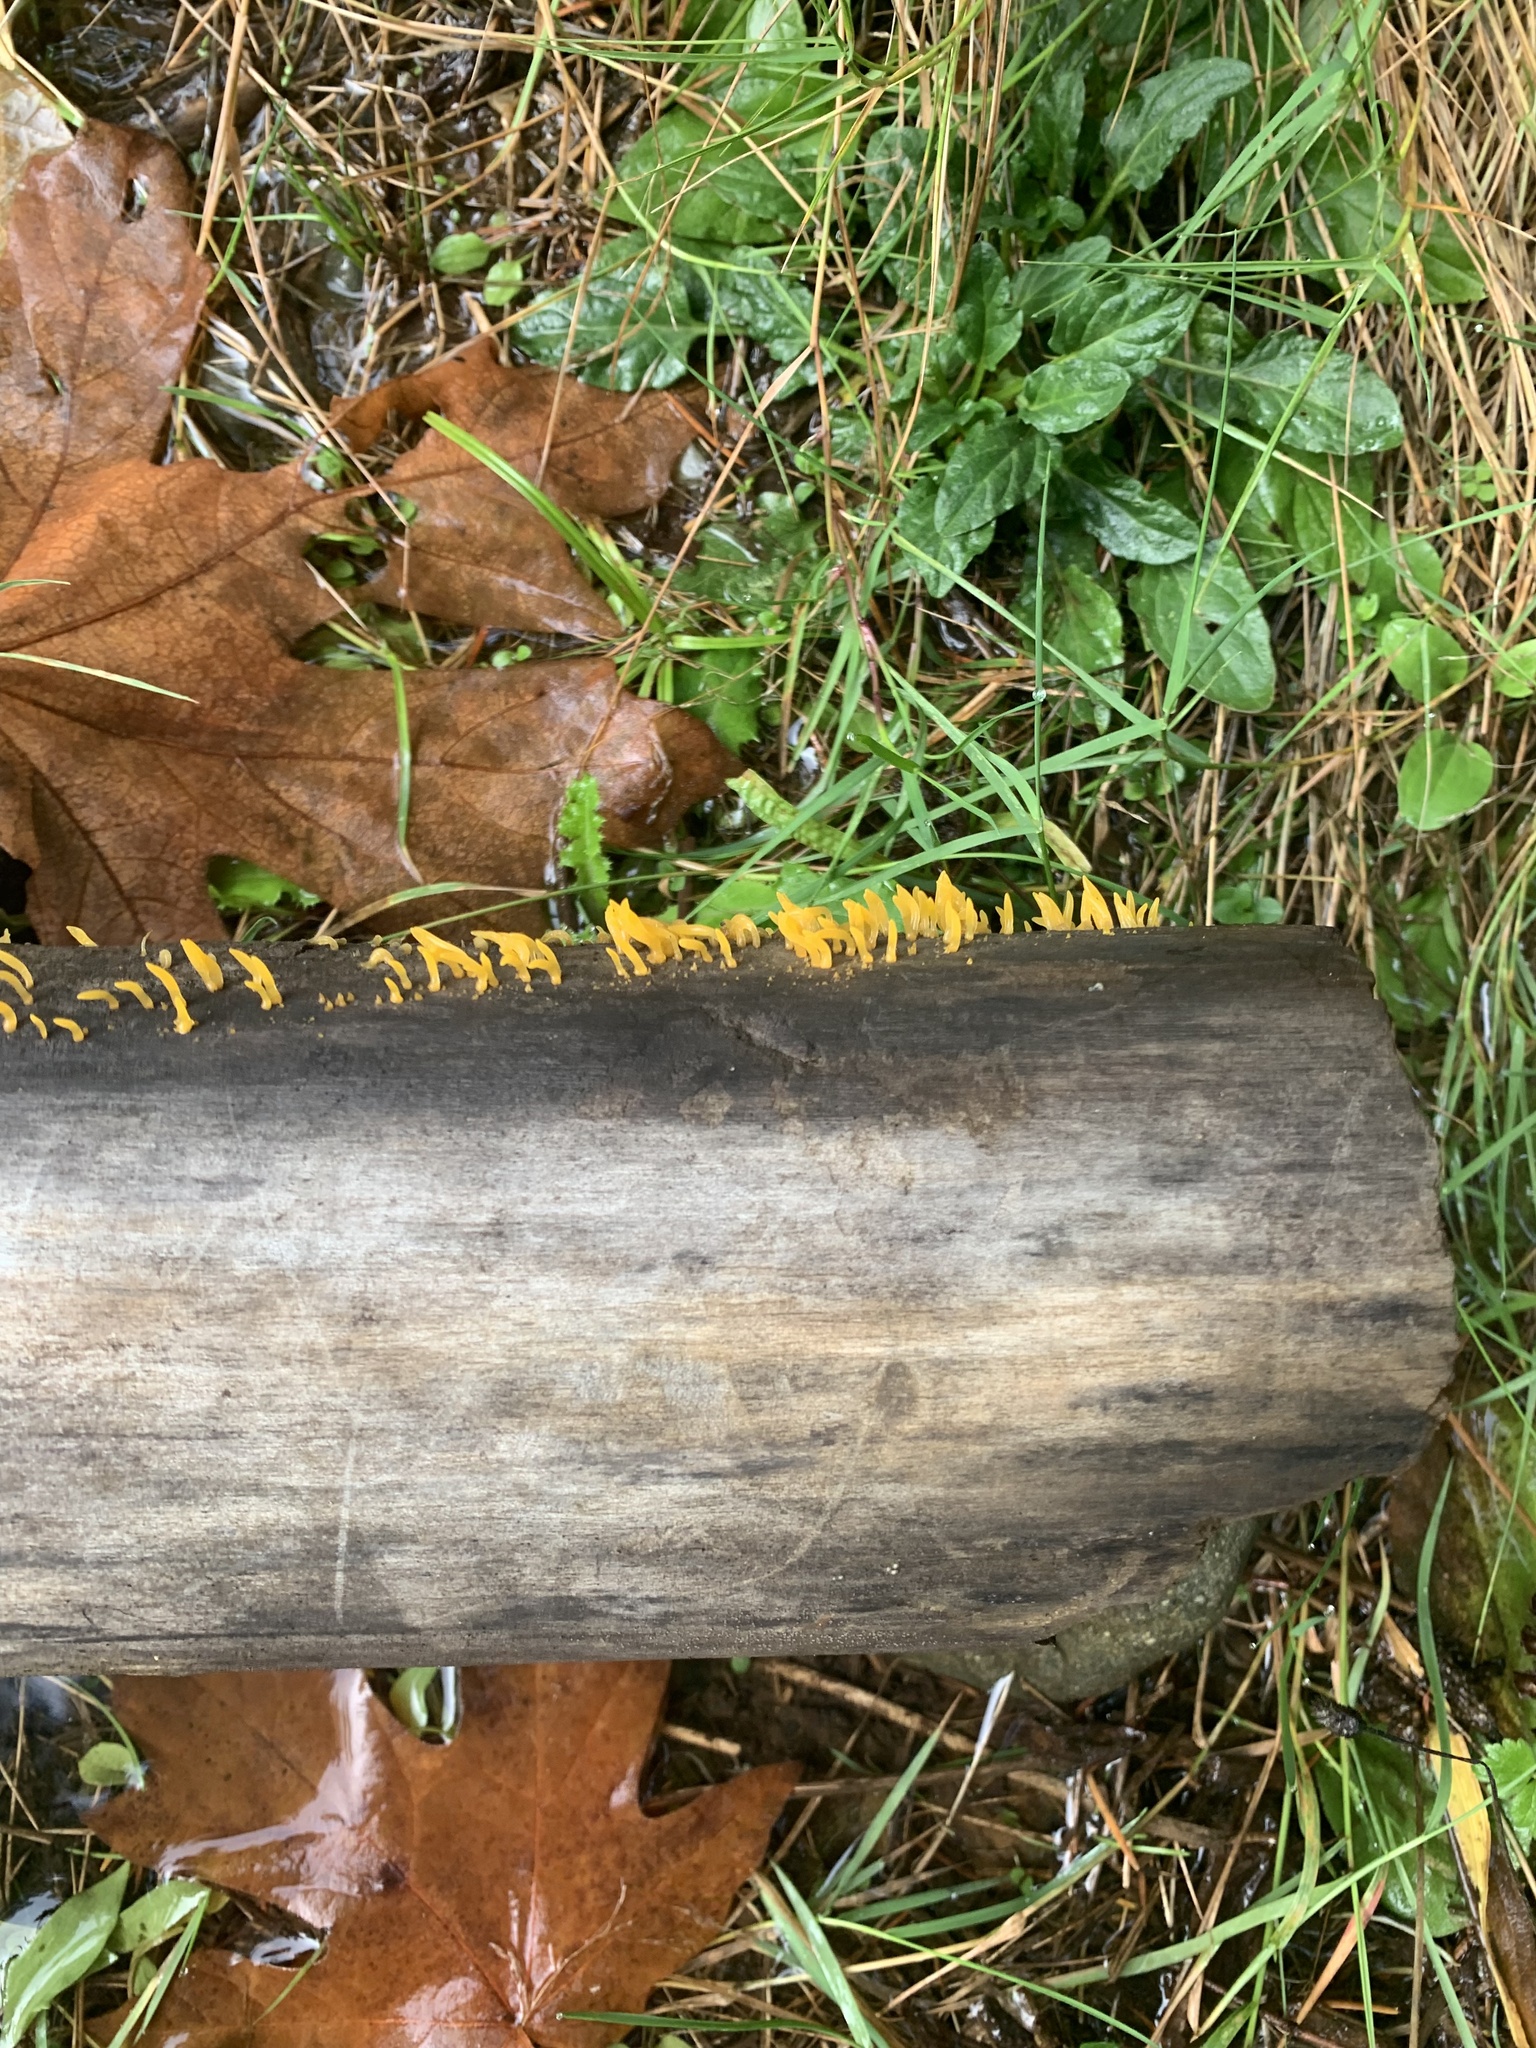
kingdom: Fungi
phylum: Basidiomycota
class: Dacrymycetes
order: Dacrymycetales
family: Dacrymycetaceae
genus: Calocera
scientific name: Calocera cornea
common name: Small stagshorn
